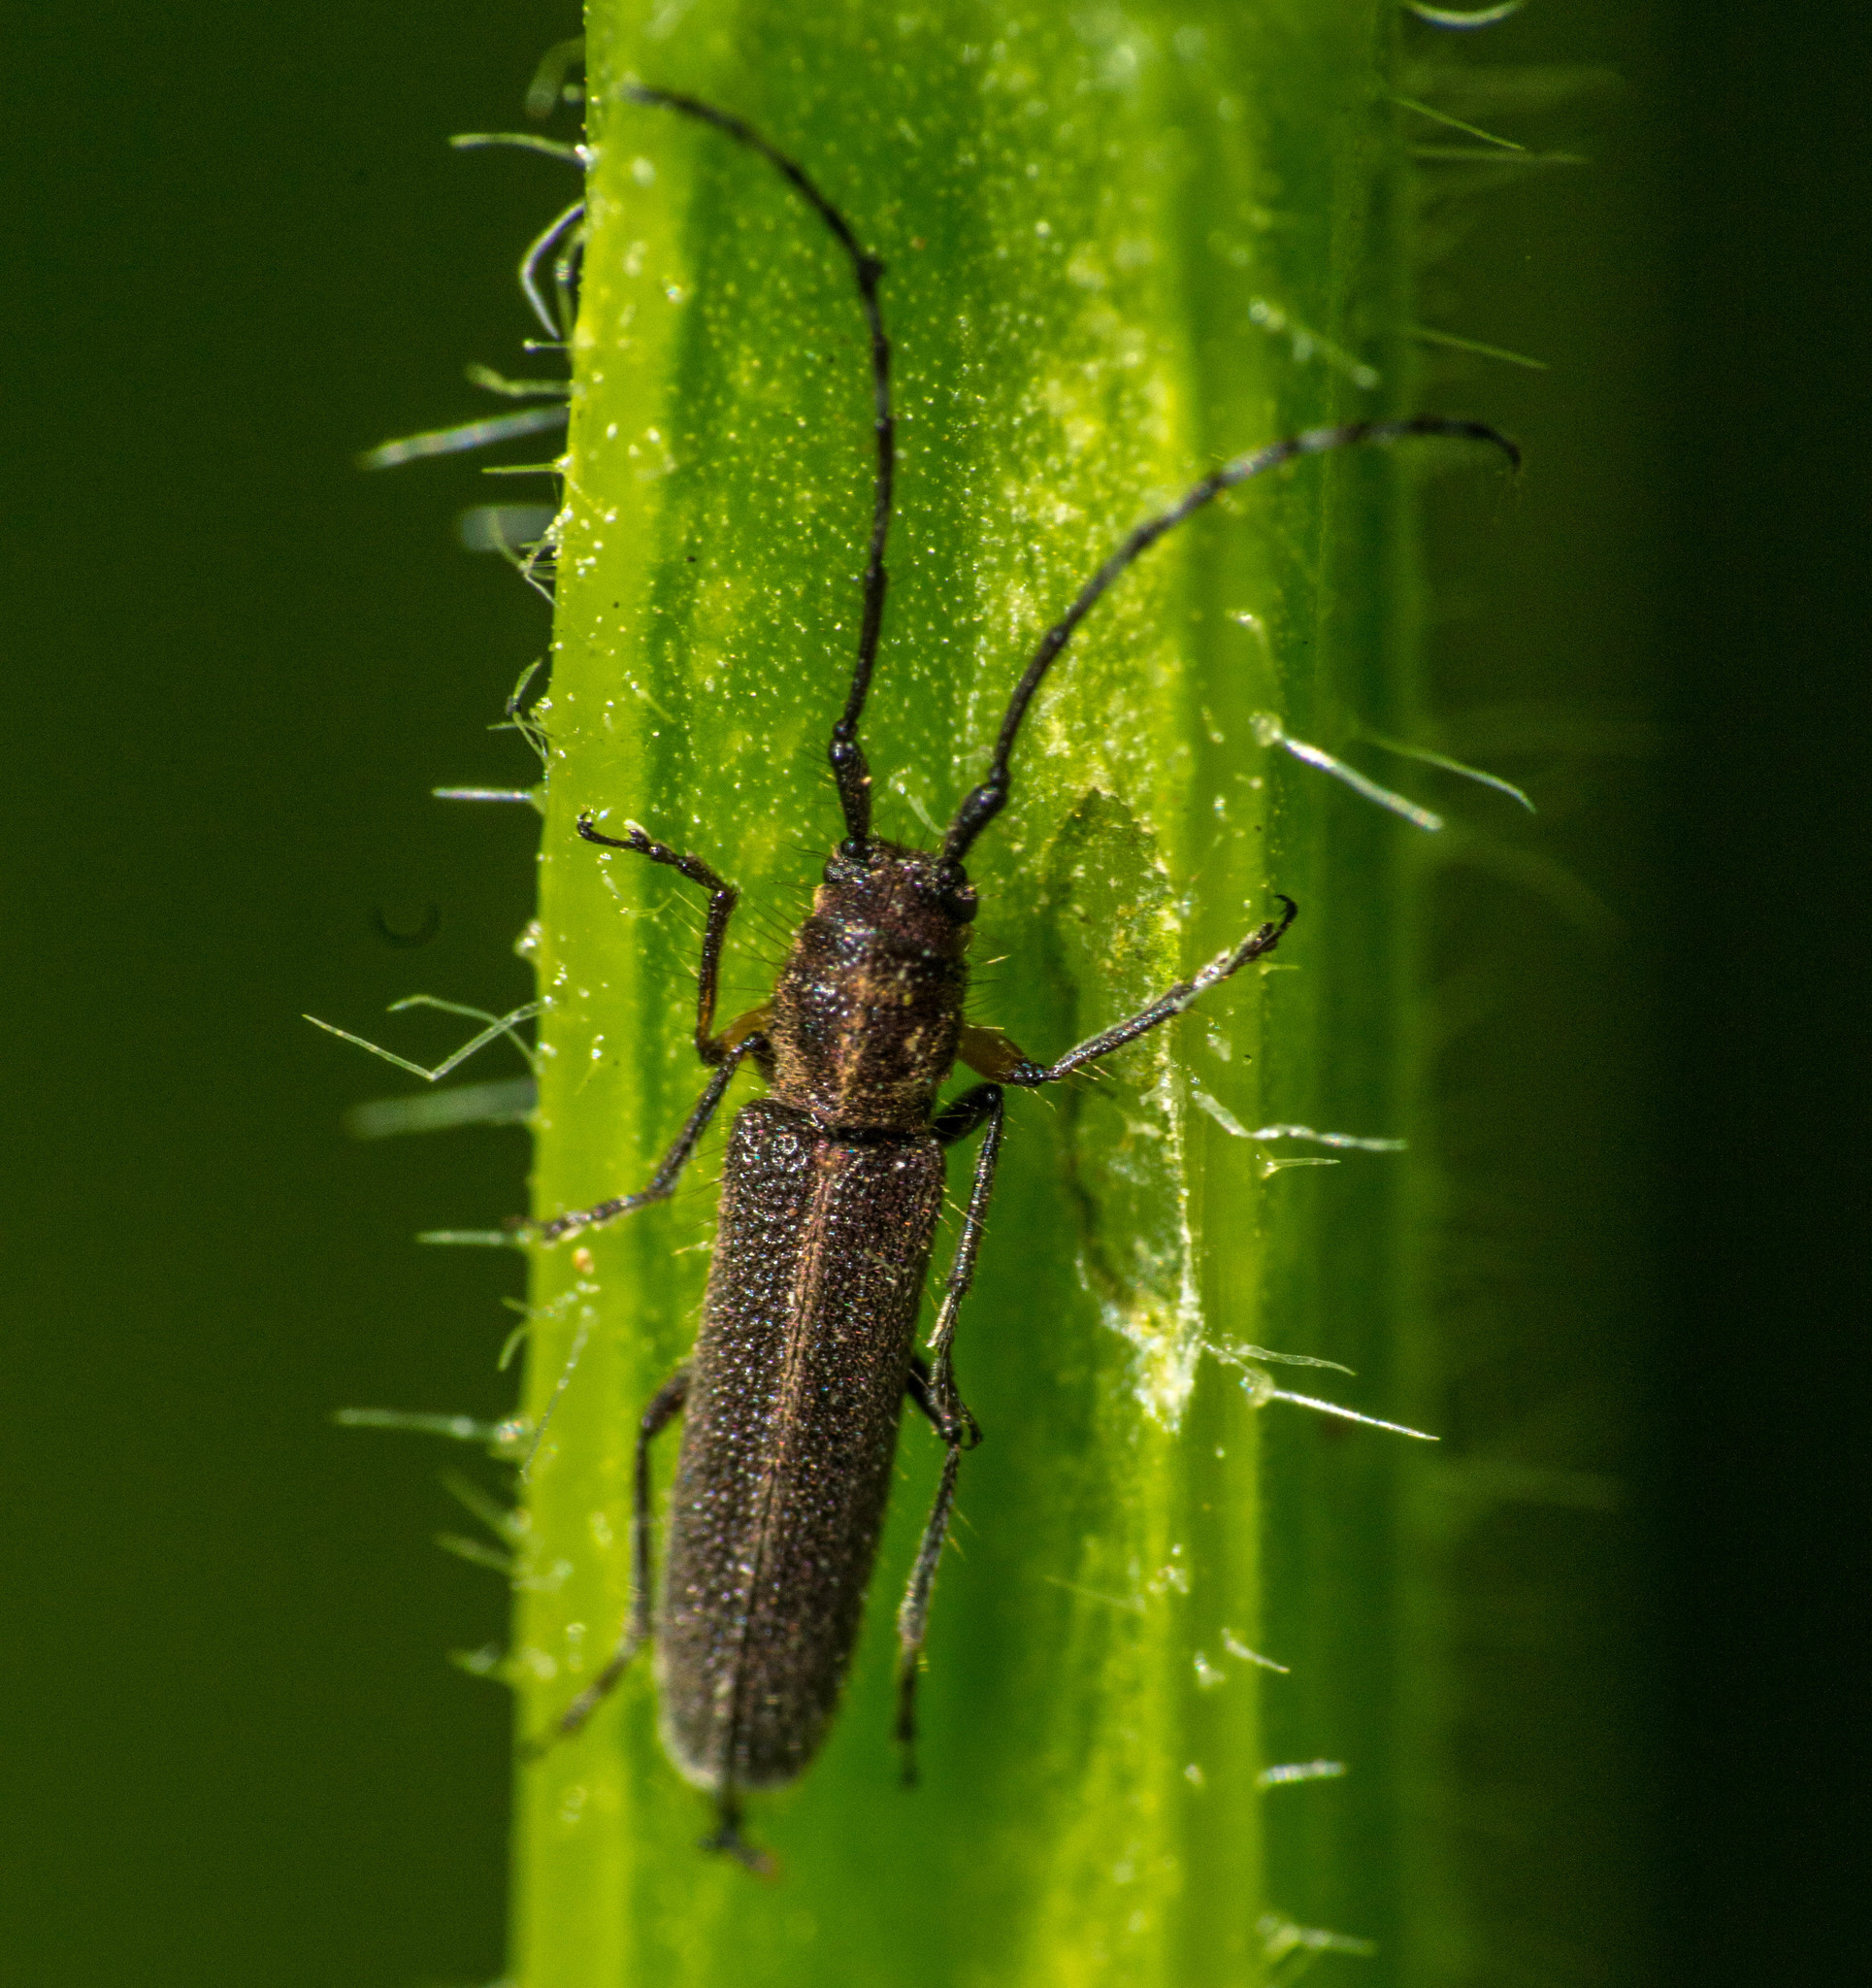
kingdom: Animalia
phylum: Arthropoda
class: Insecta
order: Coleoptera
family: Cerambycidae
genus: Emphytoeciosoma
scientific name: Emphytoeciosoma daguerrei
